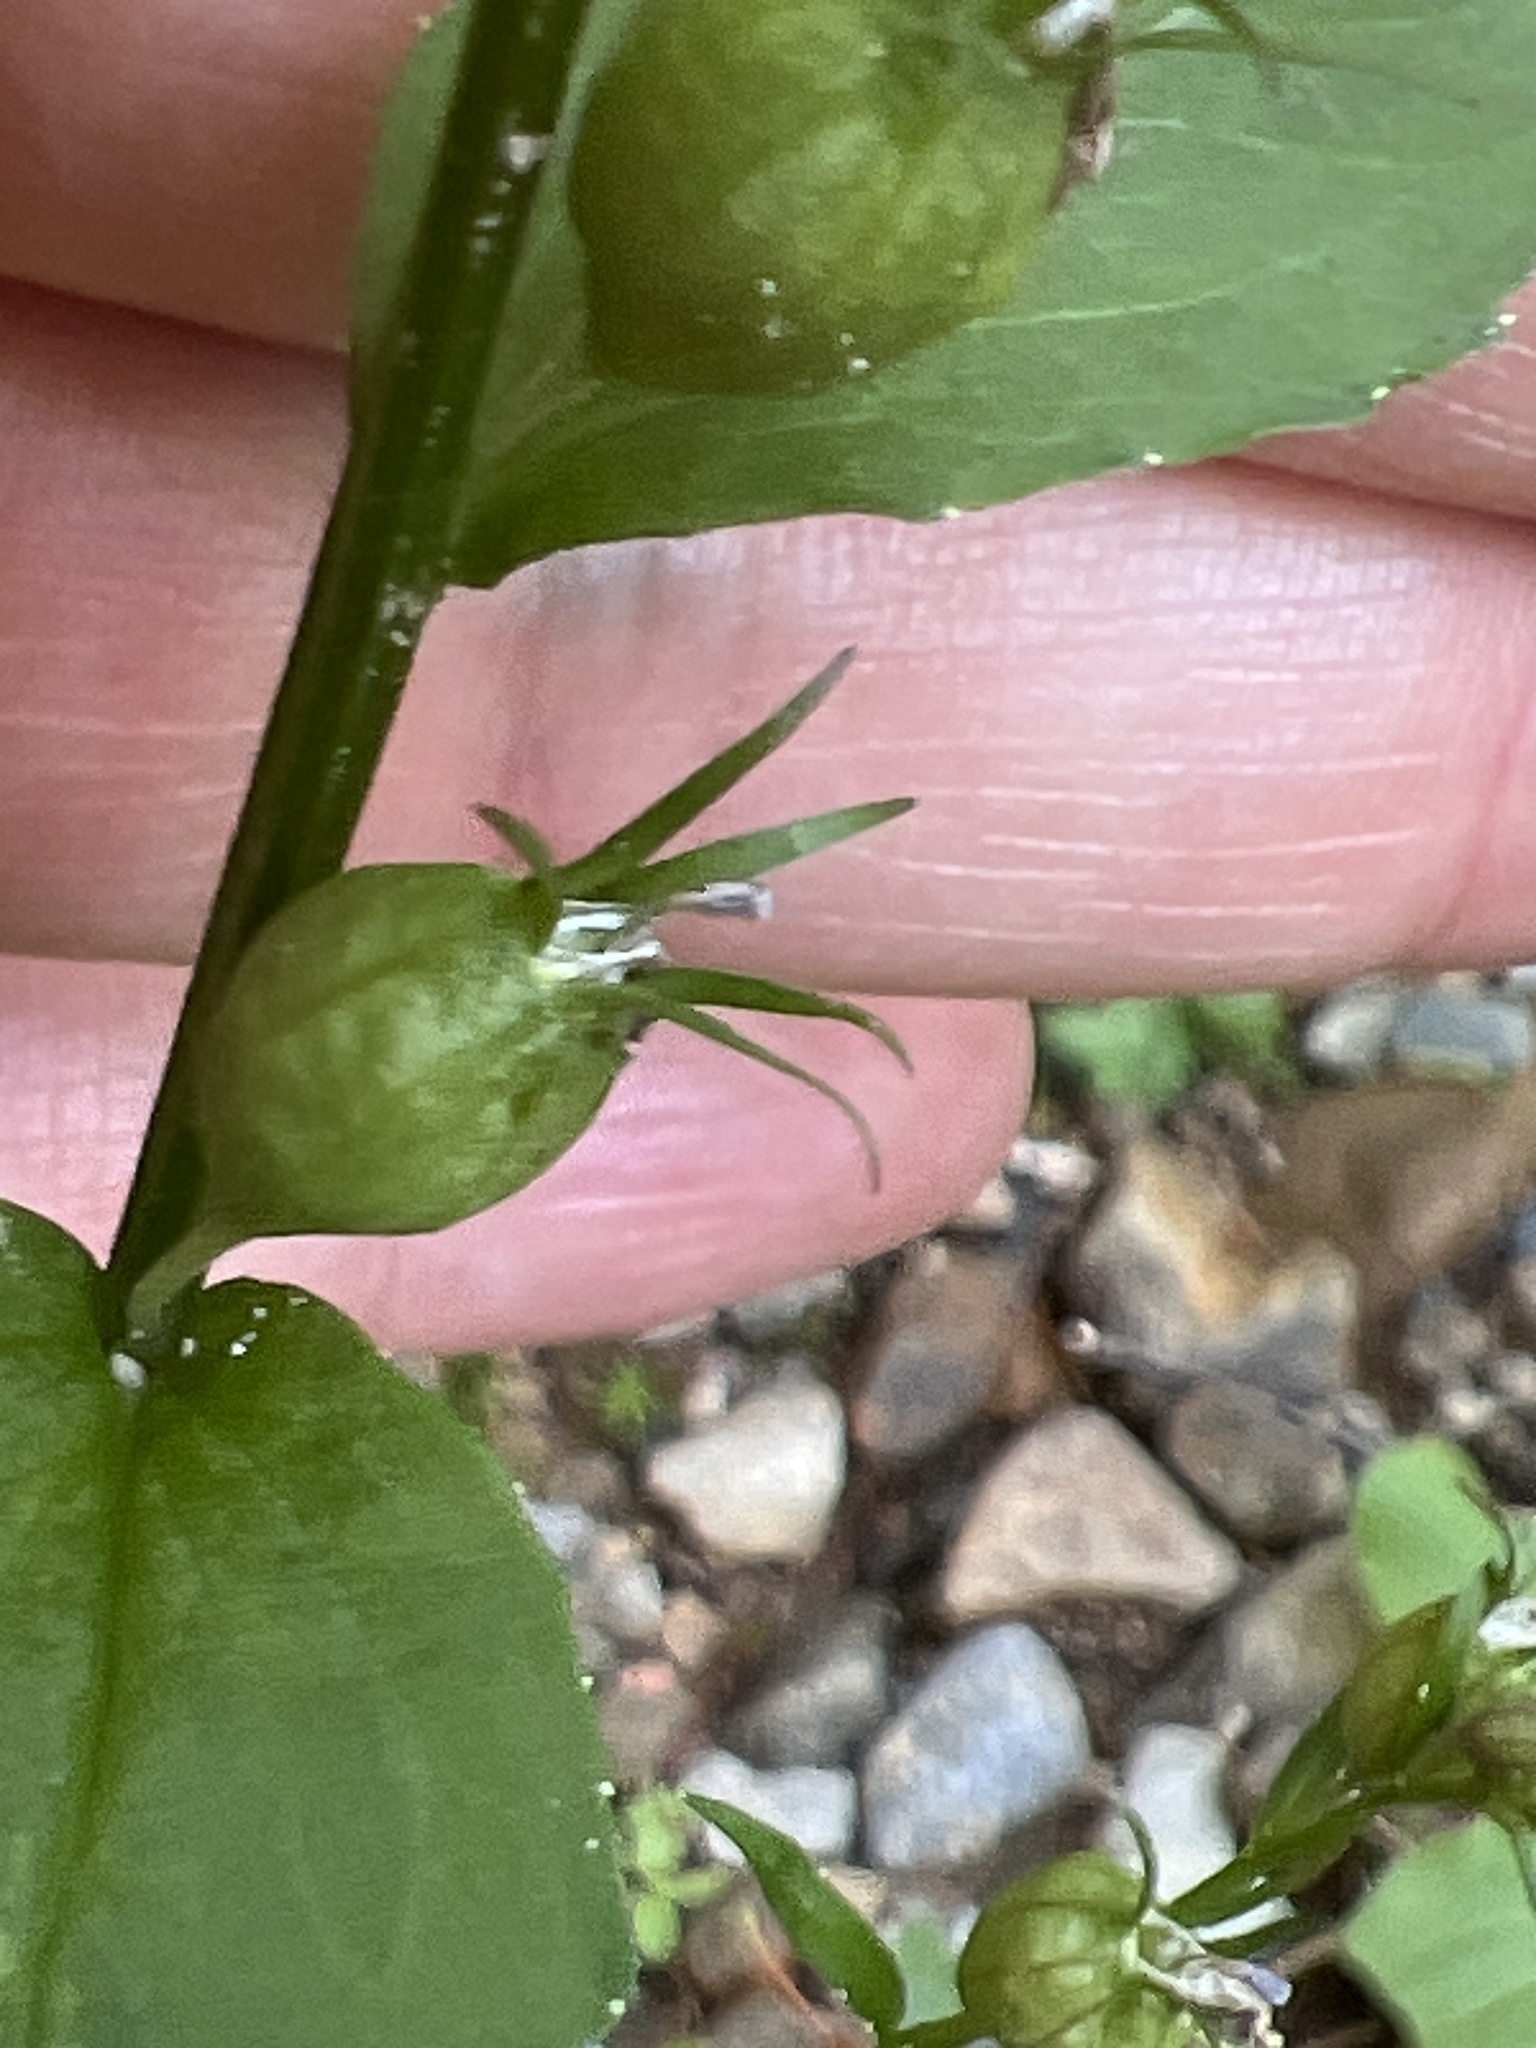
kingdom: Plantae
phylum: Tracheophyta
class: Magnoliopsida
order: Asterales
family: Campanulaceae
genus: Lobelia
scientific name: Lobelia inflata
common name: Indian tobacco
